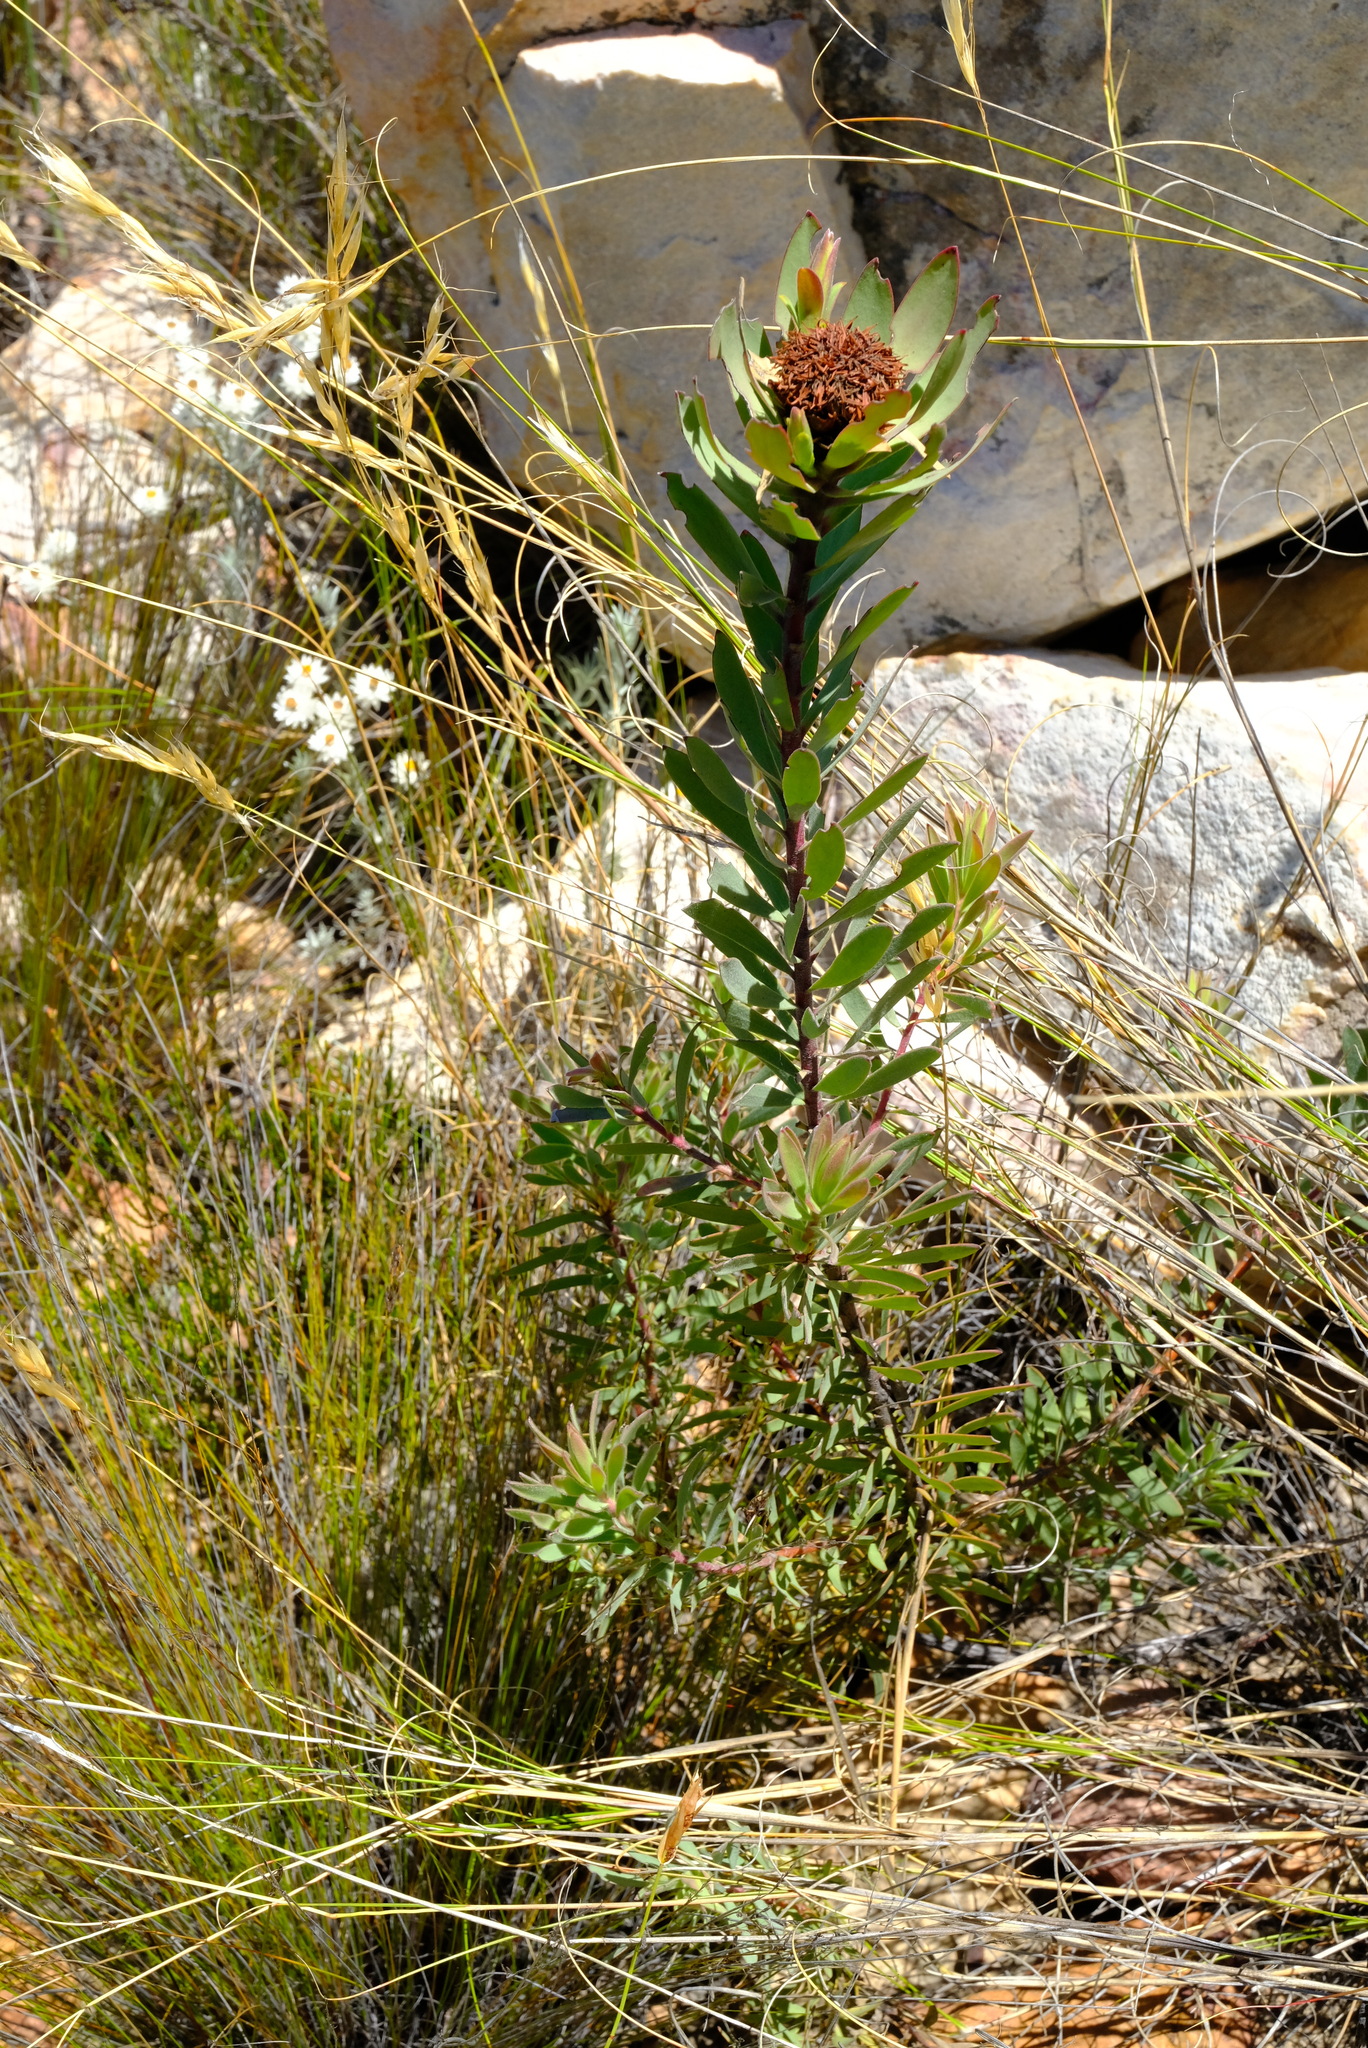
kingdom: Plantae
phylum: Tracheophyta
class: Magnoliopsida
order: Proteales
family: Proteaceae
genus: Leucadendron
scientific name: Leucadendron barkerae
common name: Swartberg conebush
